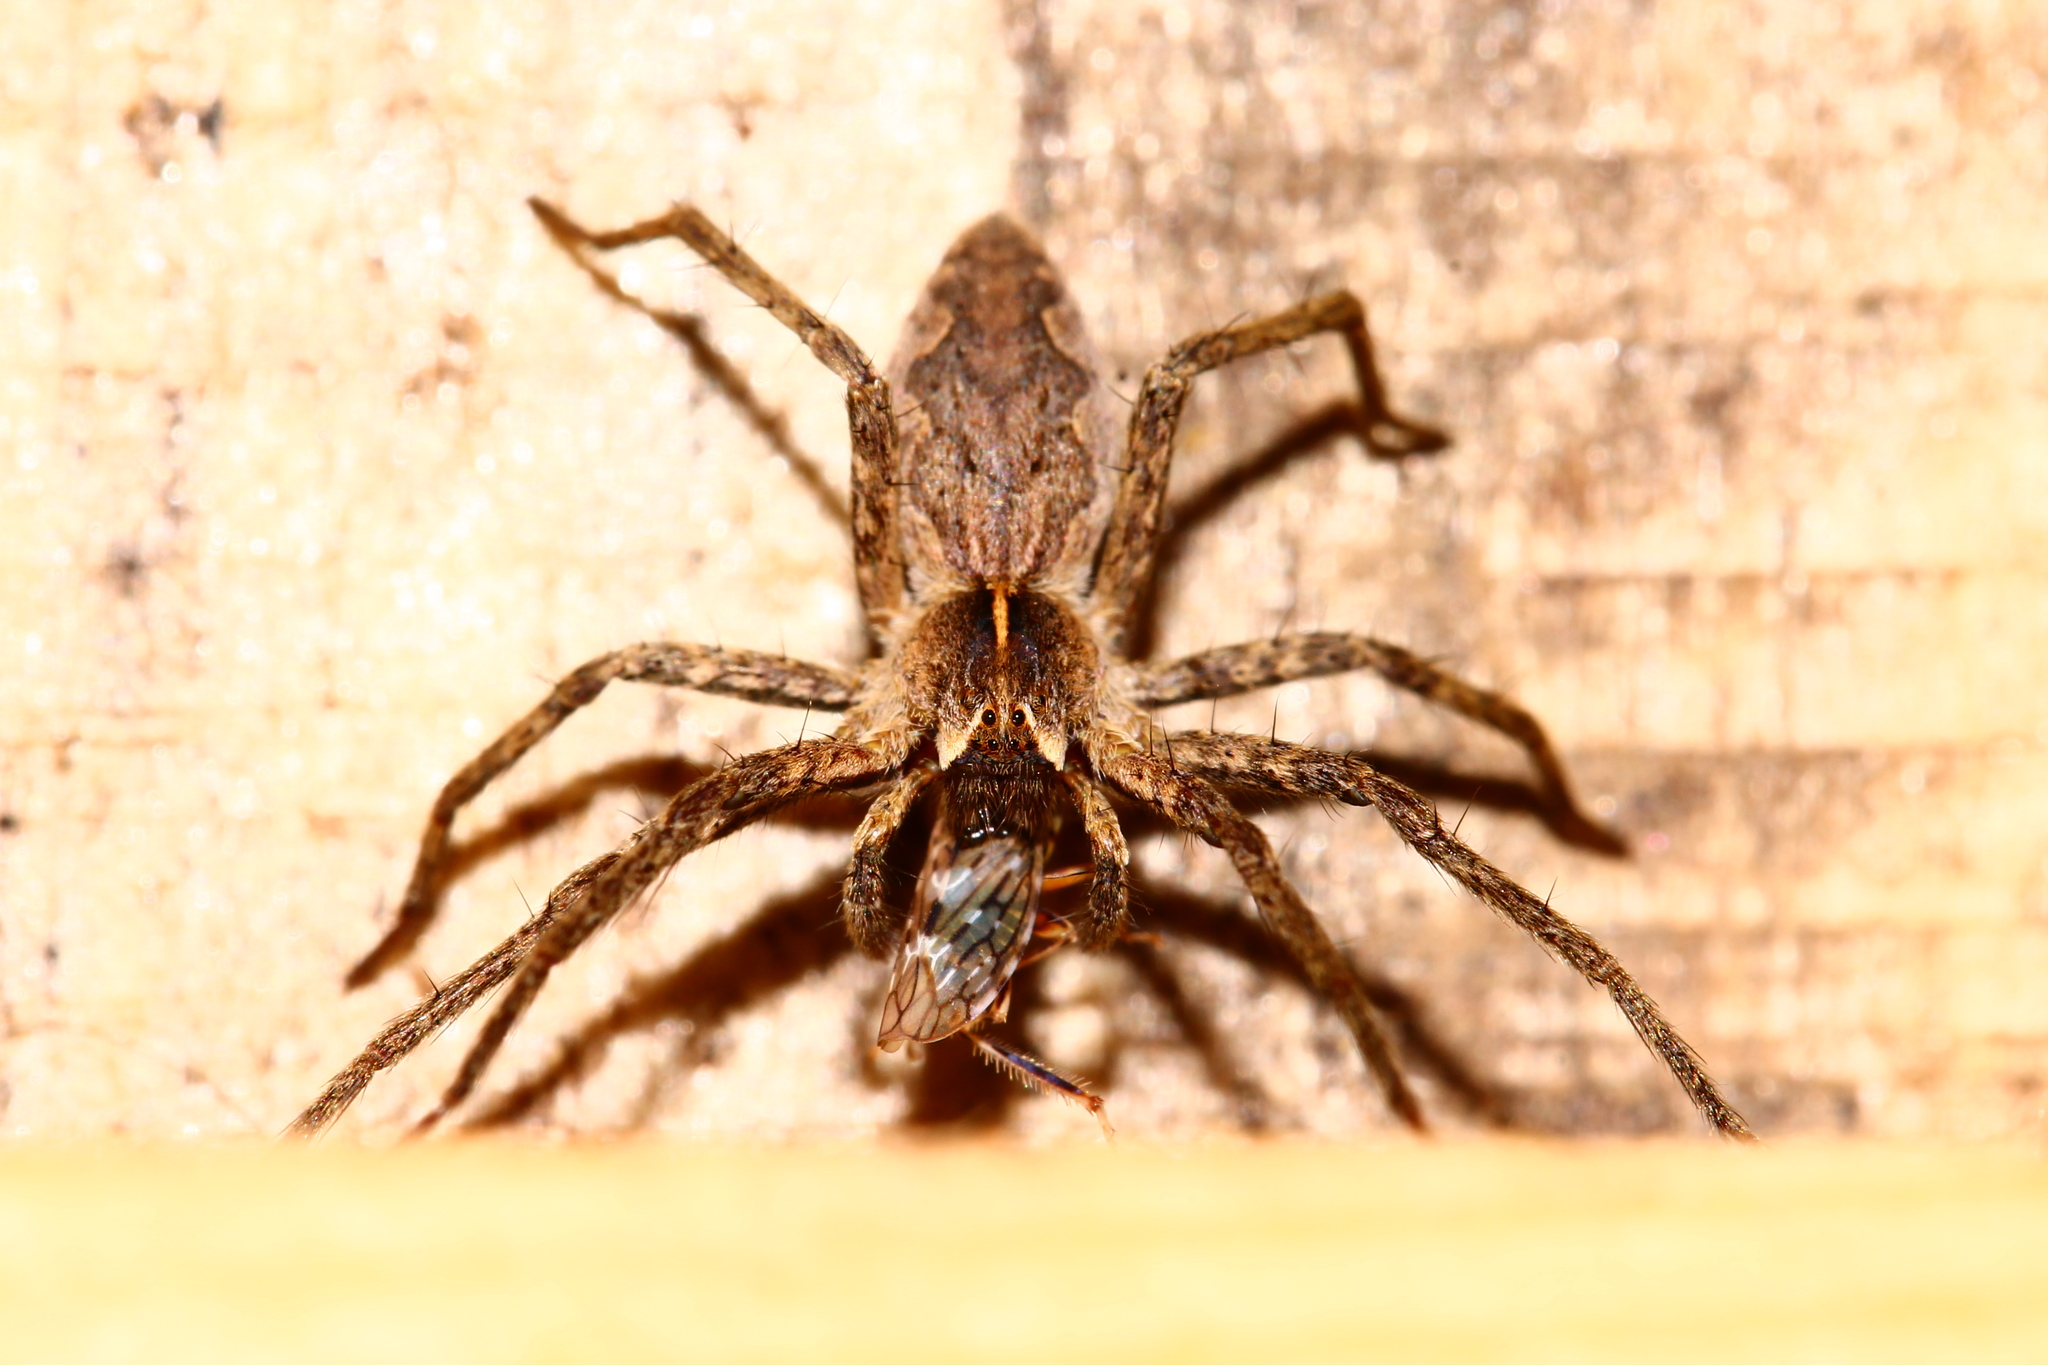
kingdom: Animalia
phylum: Arthropoda
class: Arachnida
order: Araneae
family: Pisauridae
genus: Pisaura
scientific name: Pisaura
